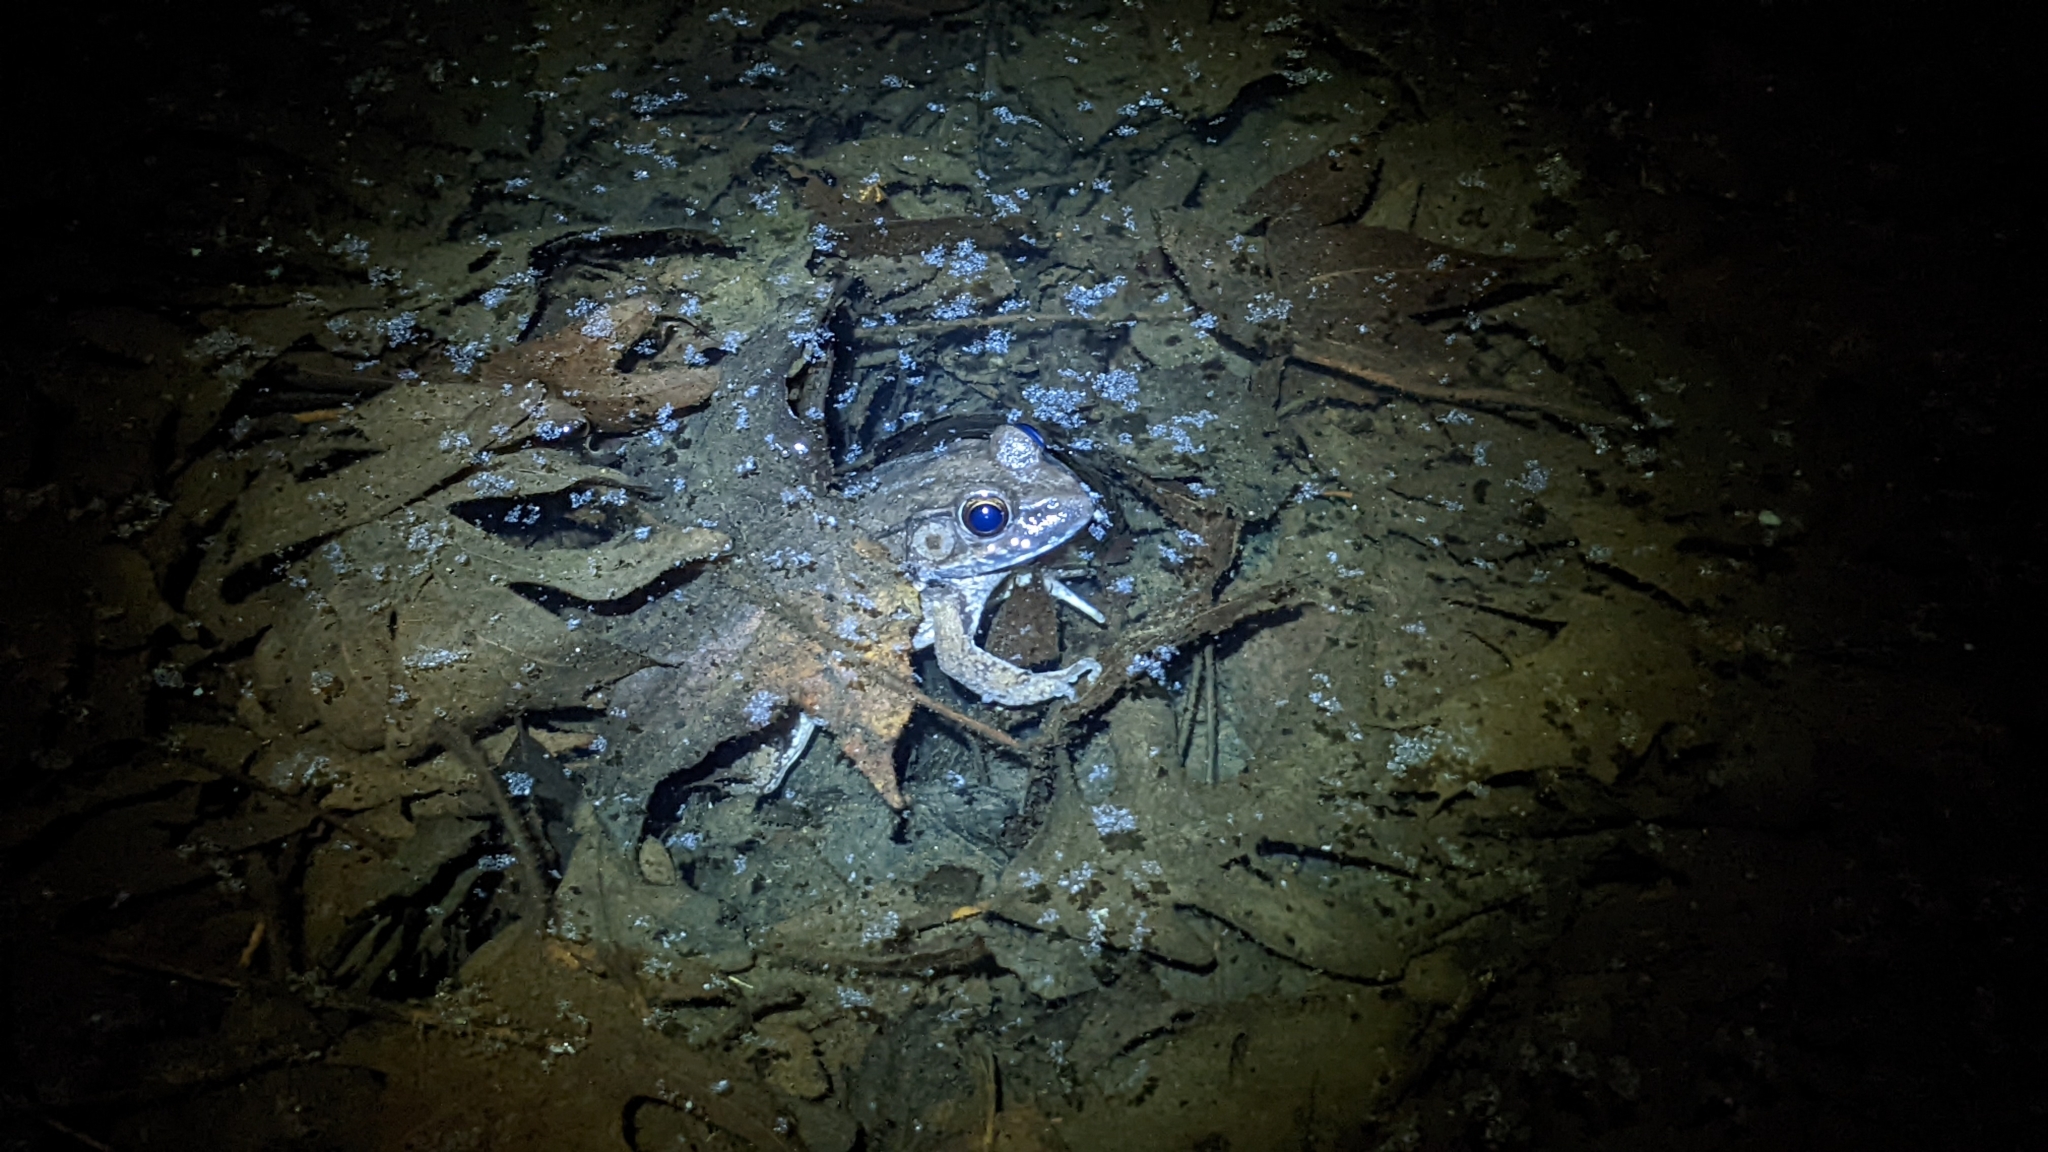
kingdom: Animalia
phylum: Chordata
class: Amphibia
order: Anura
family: Ranidae
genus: Lithobates
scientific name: Lithobates clamitans
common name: Green frog
